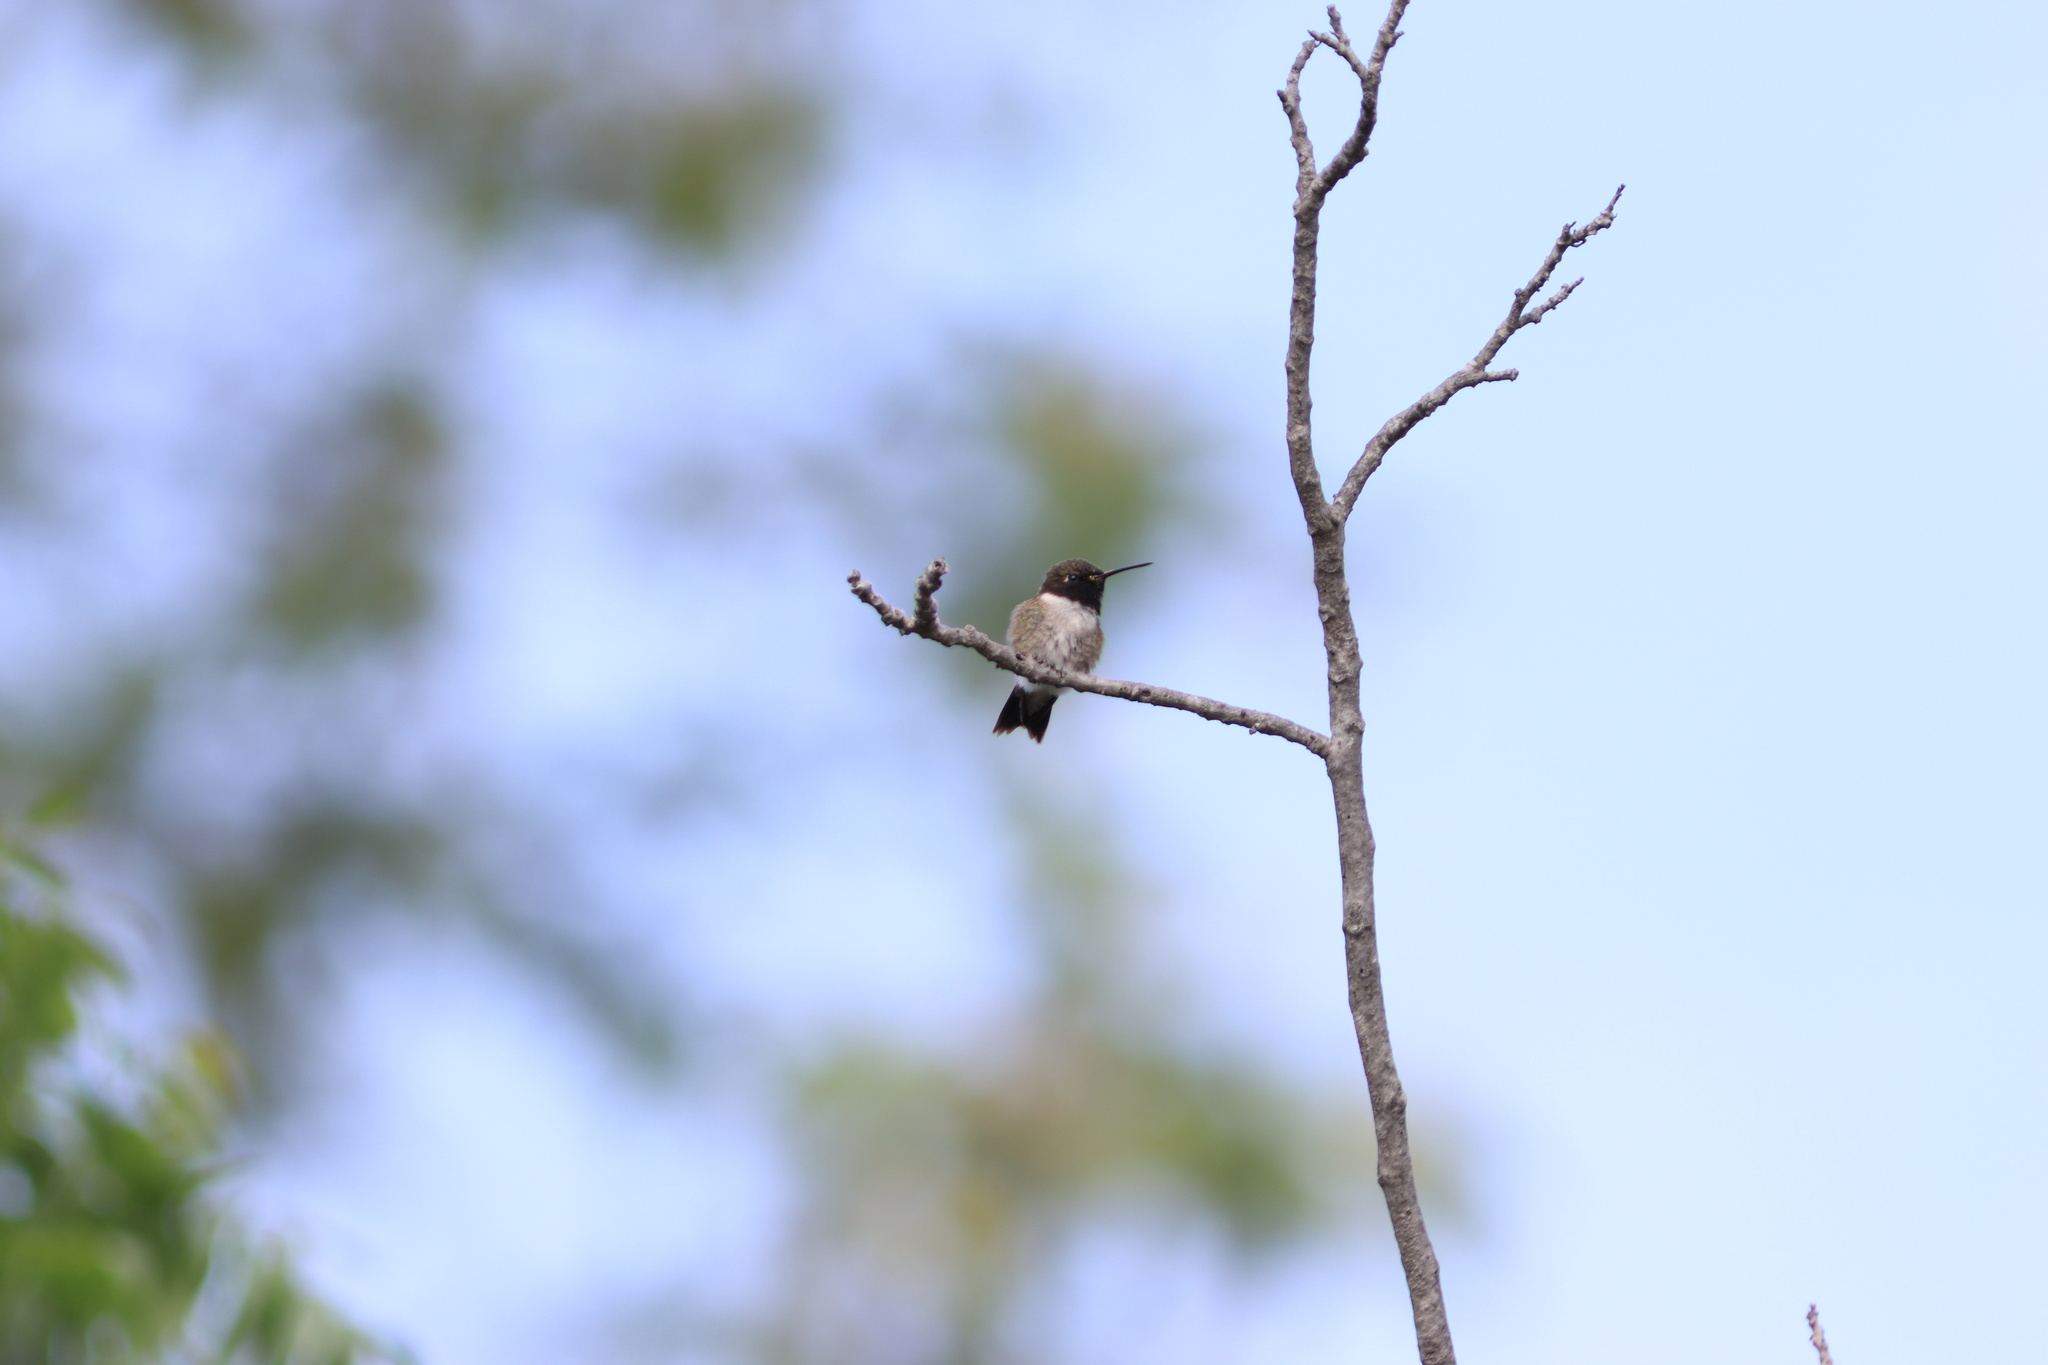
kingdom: Animalia
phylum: Chordata
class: Aves
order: Apodiformes
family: Trochilidae
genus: Archilochus
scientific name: Archilochus alexandri
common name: Black-chinned hummingbird
